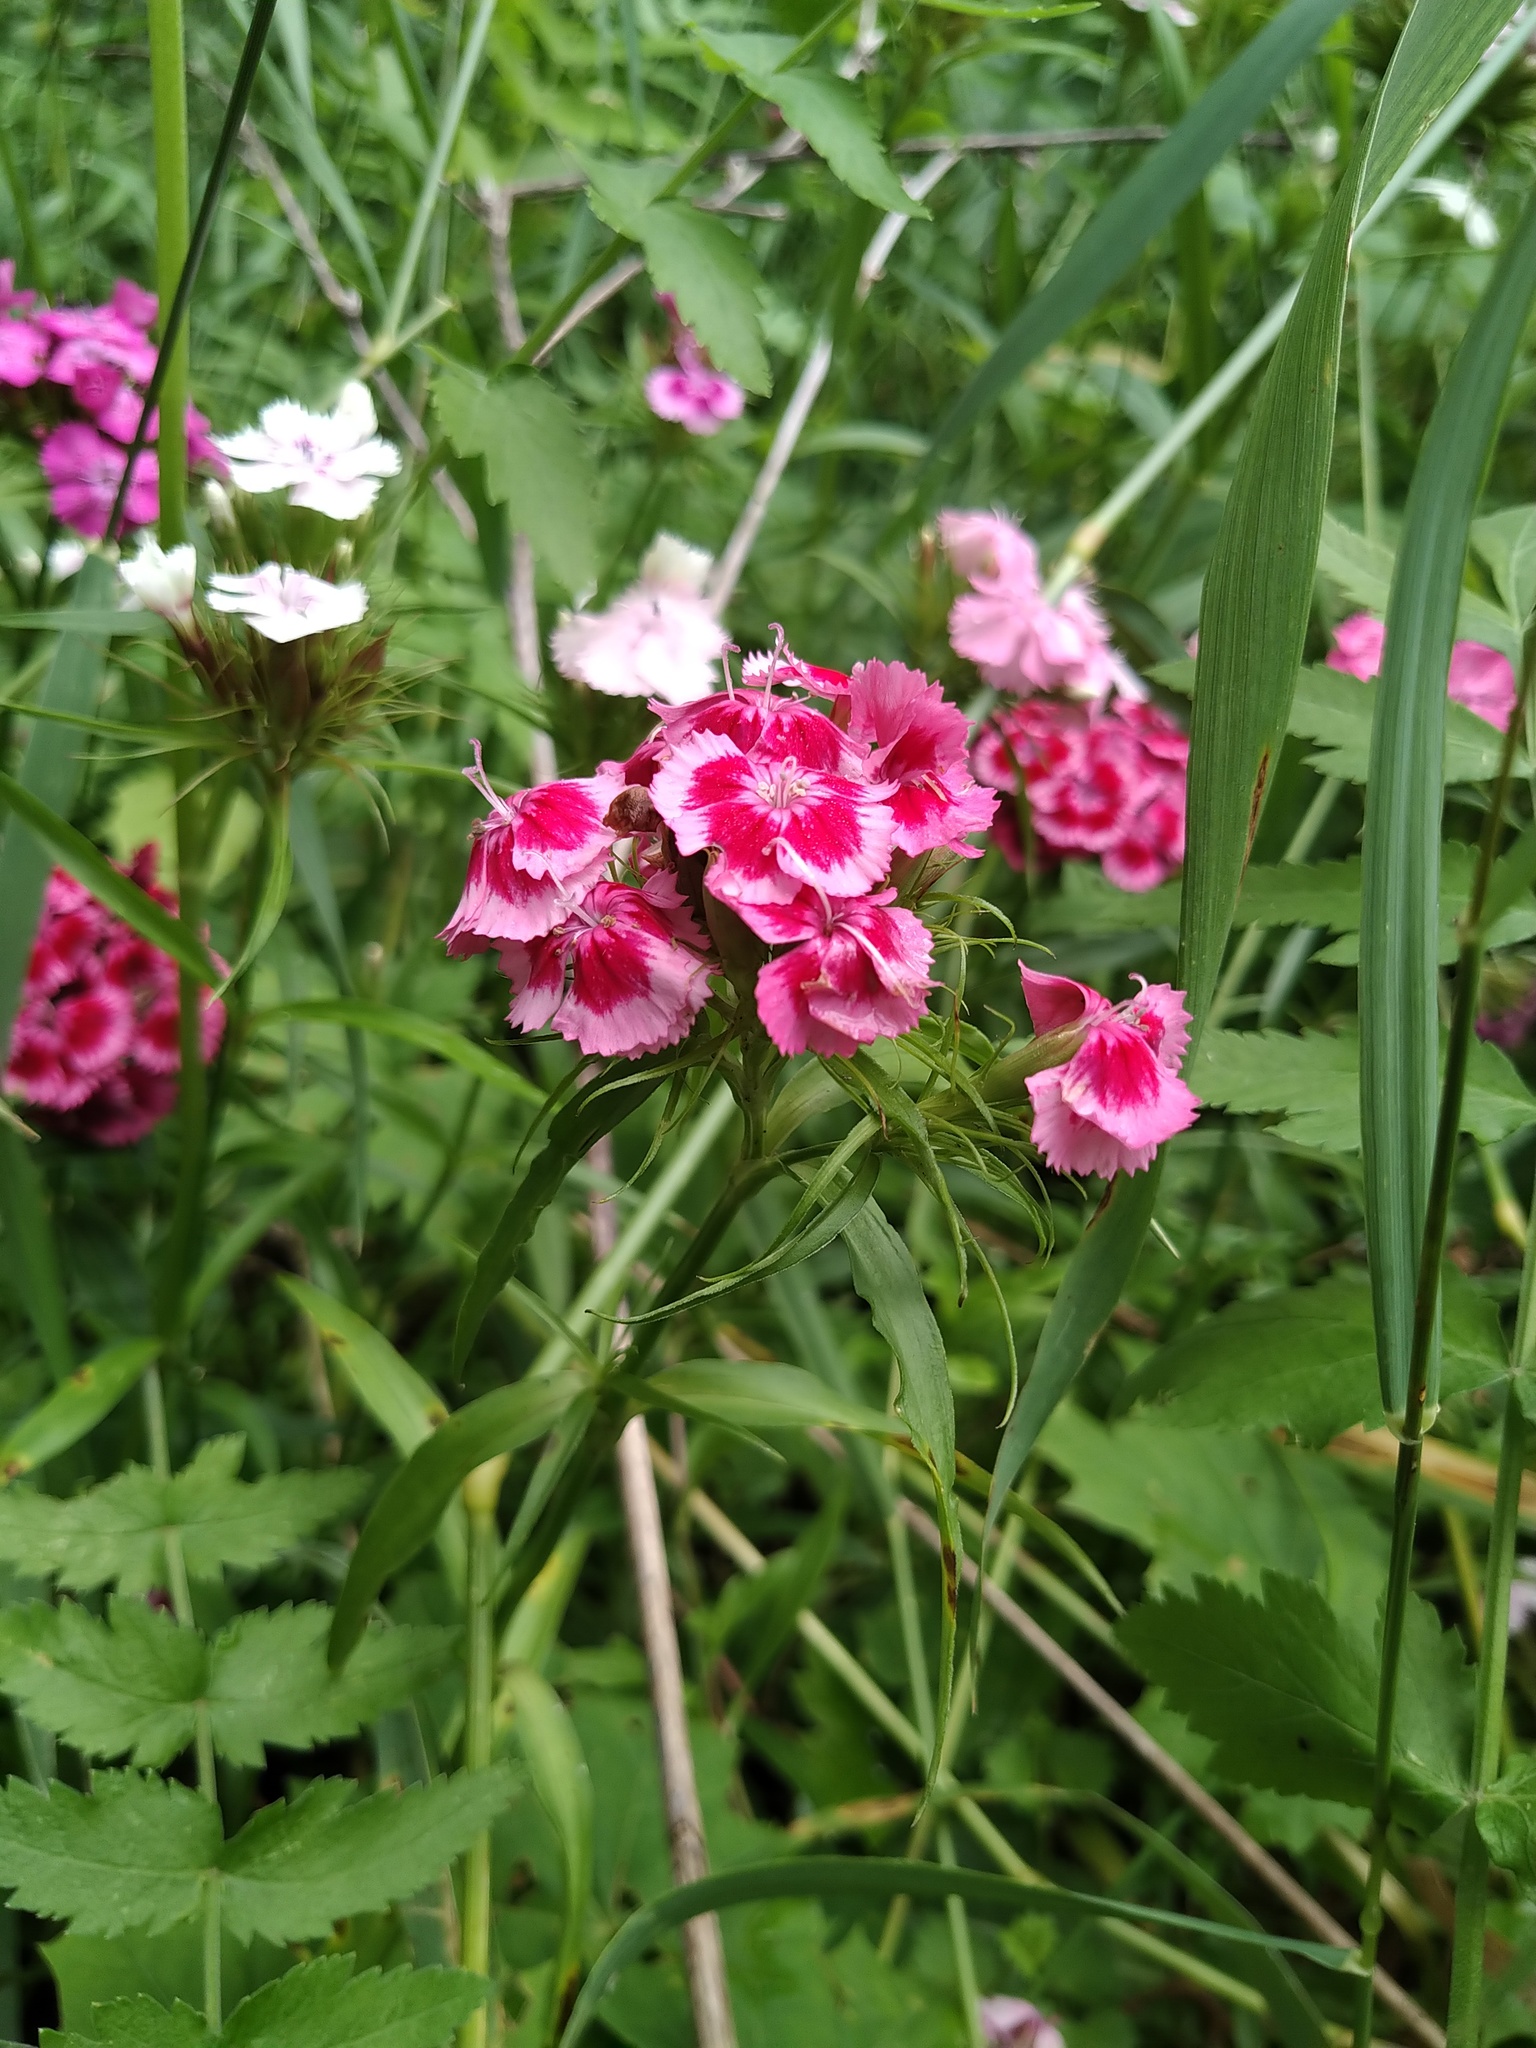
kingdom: Plantae
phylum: Tracheophyta
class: Magnoliopsida
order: Caryophyllales
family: Caryophyllaceae
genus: Dianthus
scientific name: Dianthus barbatus
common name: Sweet-william
